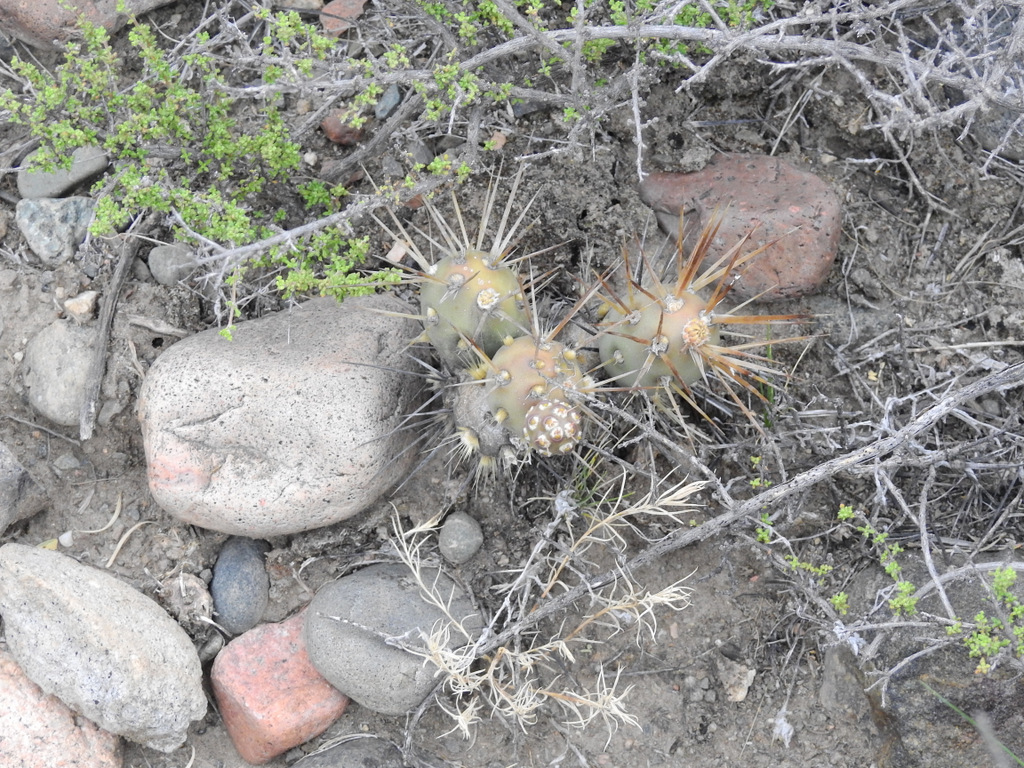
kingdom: Plantae
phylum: Tracheophyta
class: Magnoliopsida
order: Caryophyllales
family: Cactaceae
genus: Maihueniopsis
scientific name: Maihueniopsis darwinii
